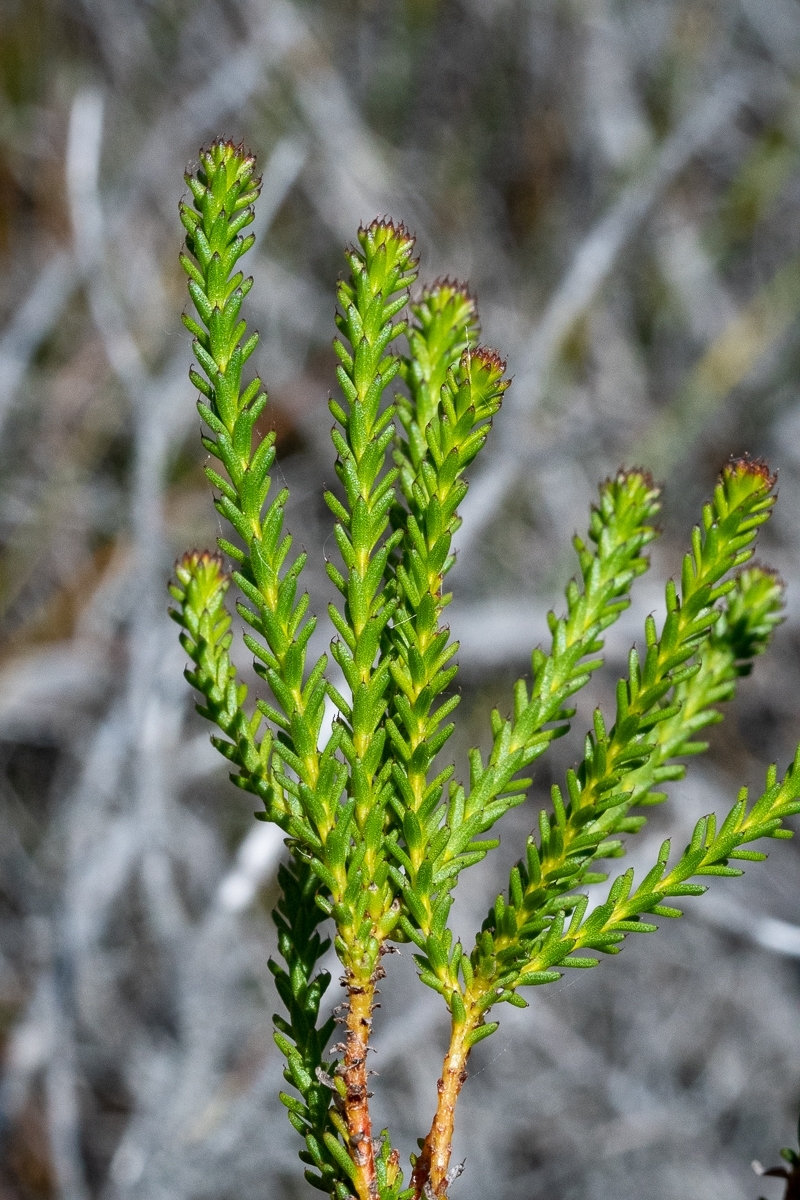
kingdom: Plantae
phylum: Tracheophyta
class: Magnoliopsida
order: Bruniales
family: Bruniaceae
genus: Berzelia
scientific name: Berzelia abrotanoides
